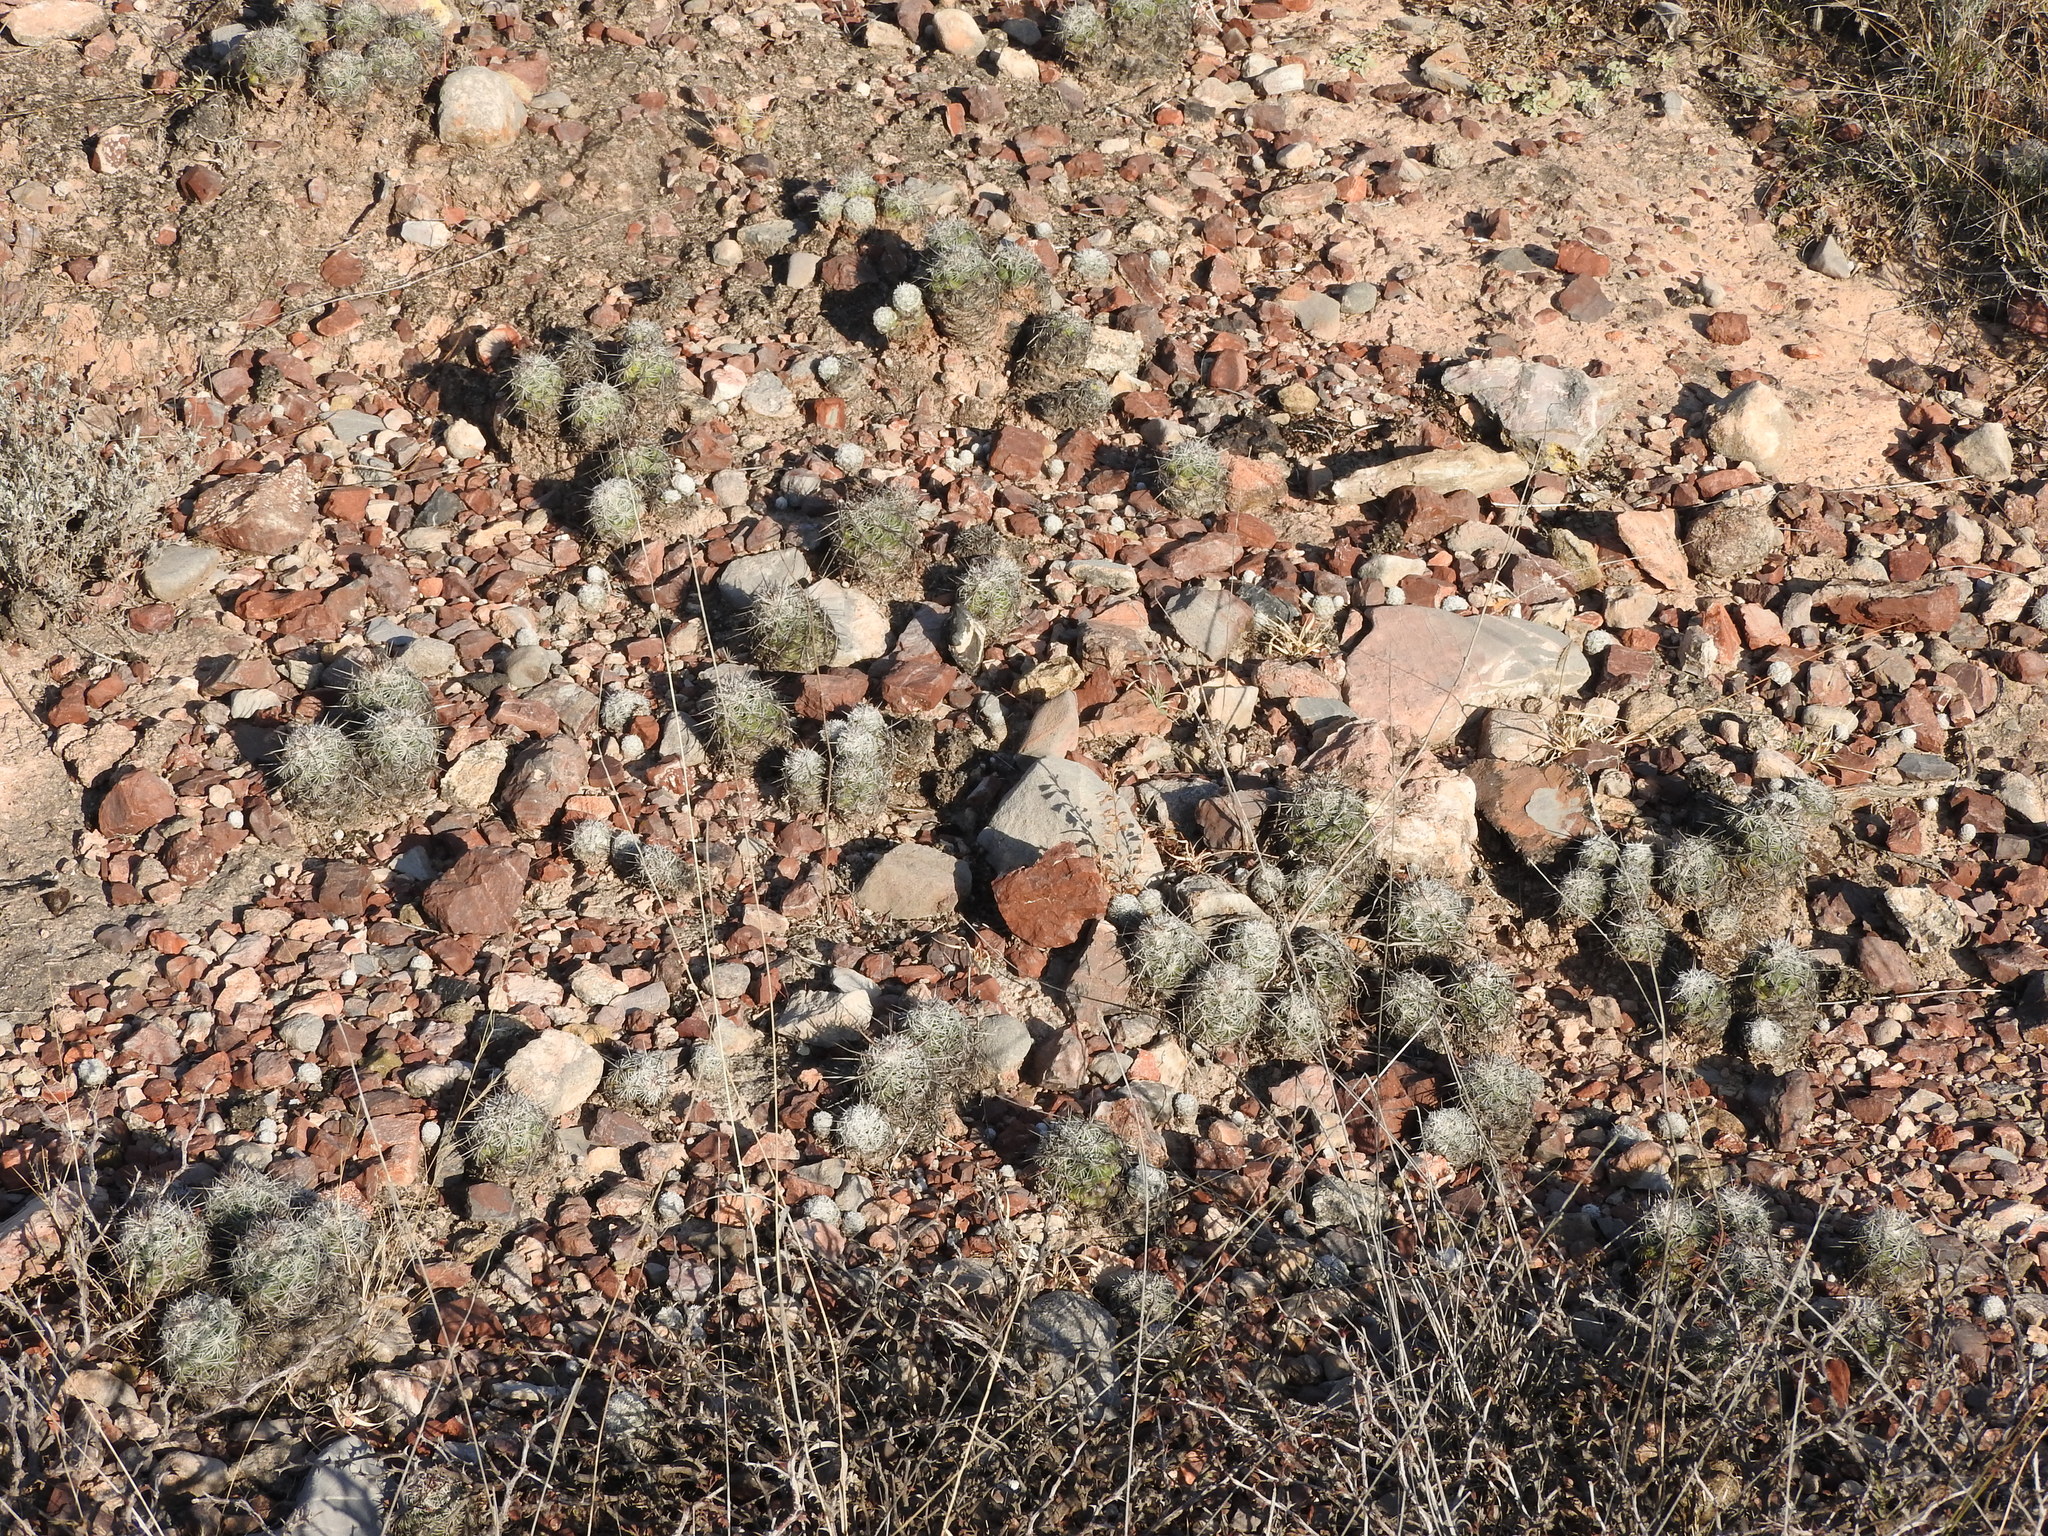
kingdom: Plantae
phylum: Tracheophyta
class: Magnoliopsida
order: Caryophyllales
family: Cactaceae
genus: Cochemiea
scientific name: Cochemiea conoidea
